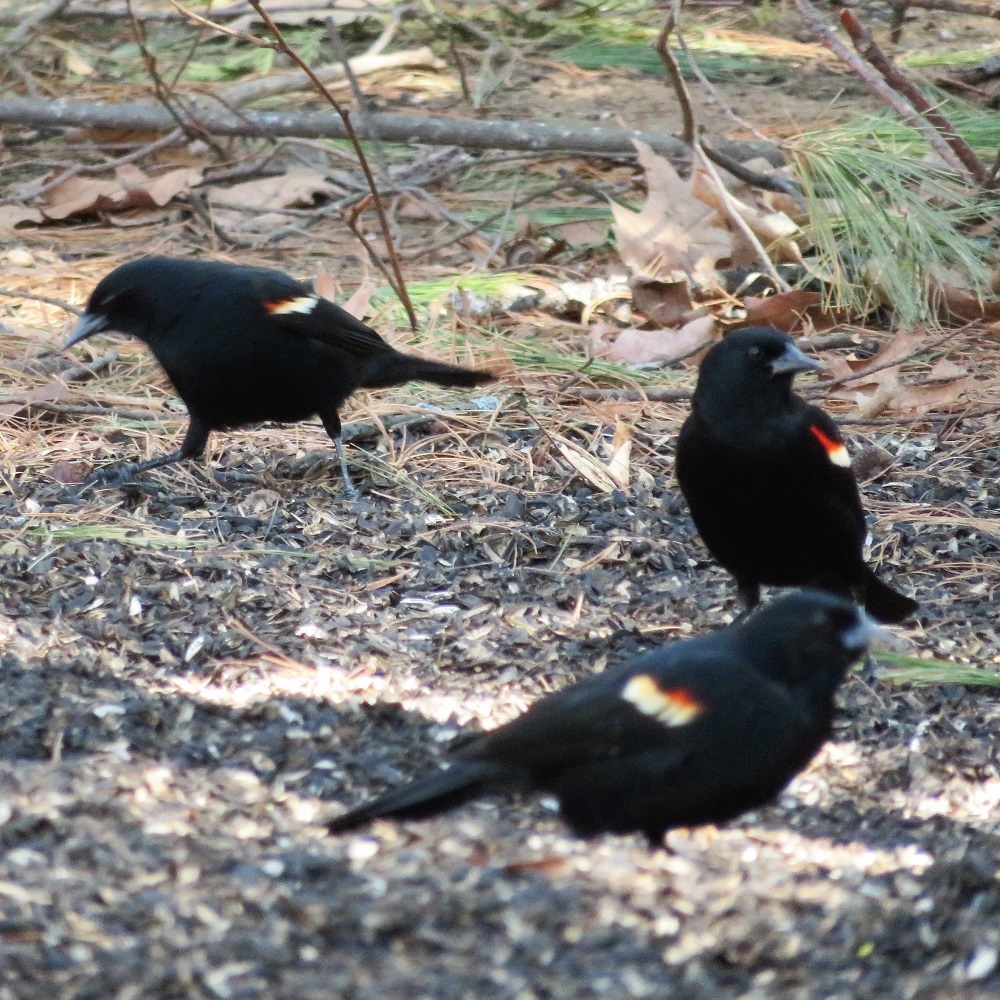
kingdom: Animalia
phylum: Chordata
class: Aves
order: Passeriformes
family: Icteridae
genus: Agelaius
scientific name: Agelaius phoeniceus
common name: Red-winged blackbird
